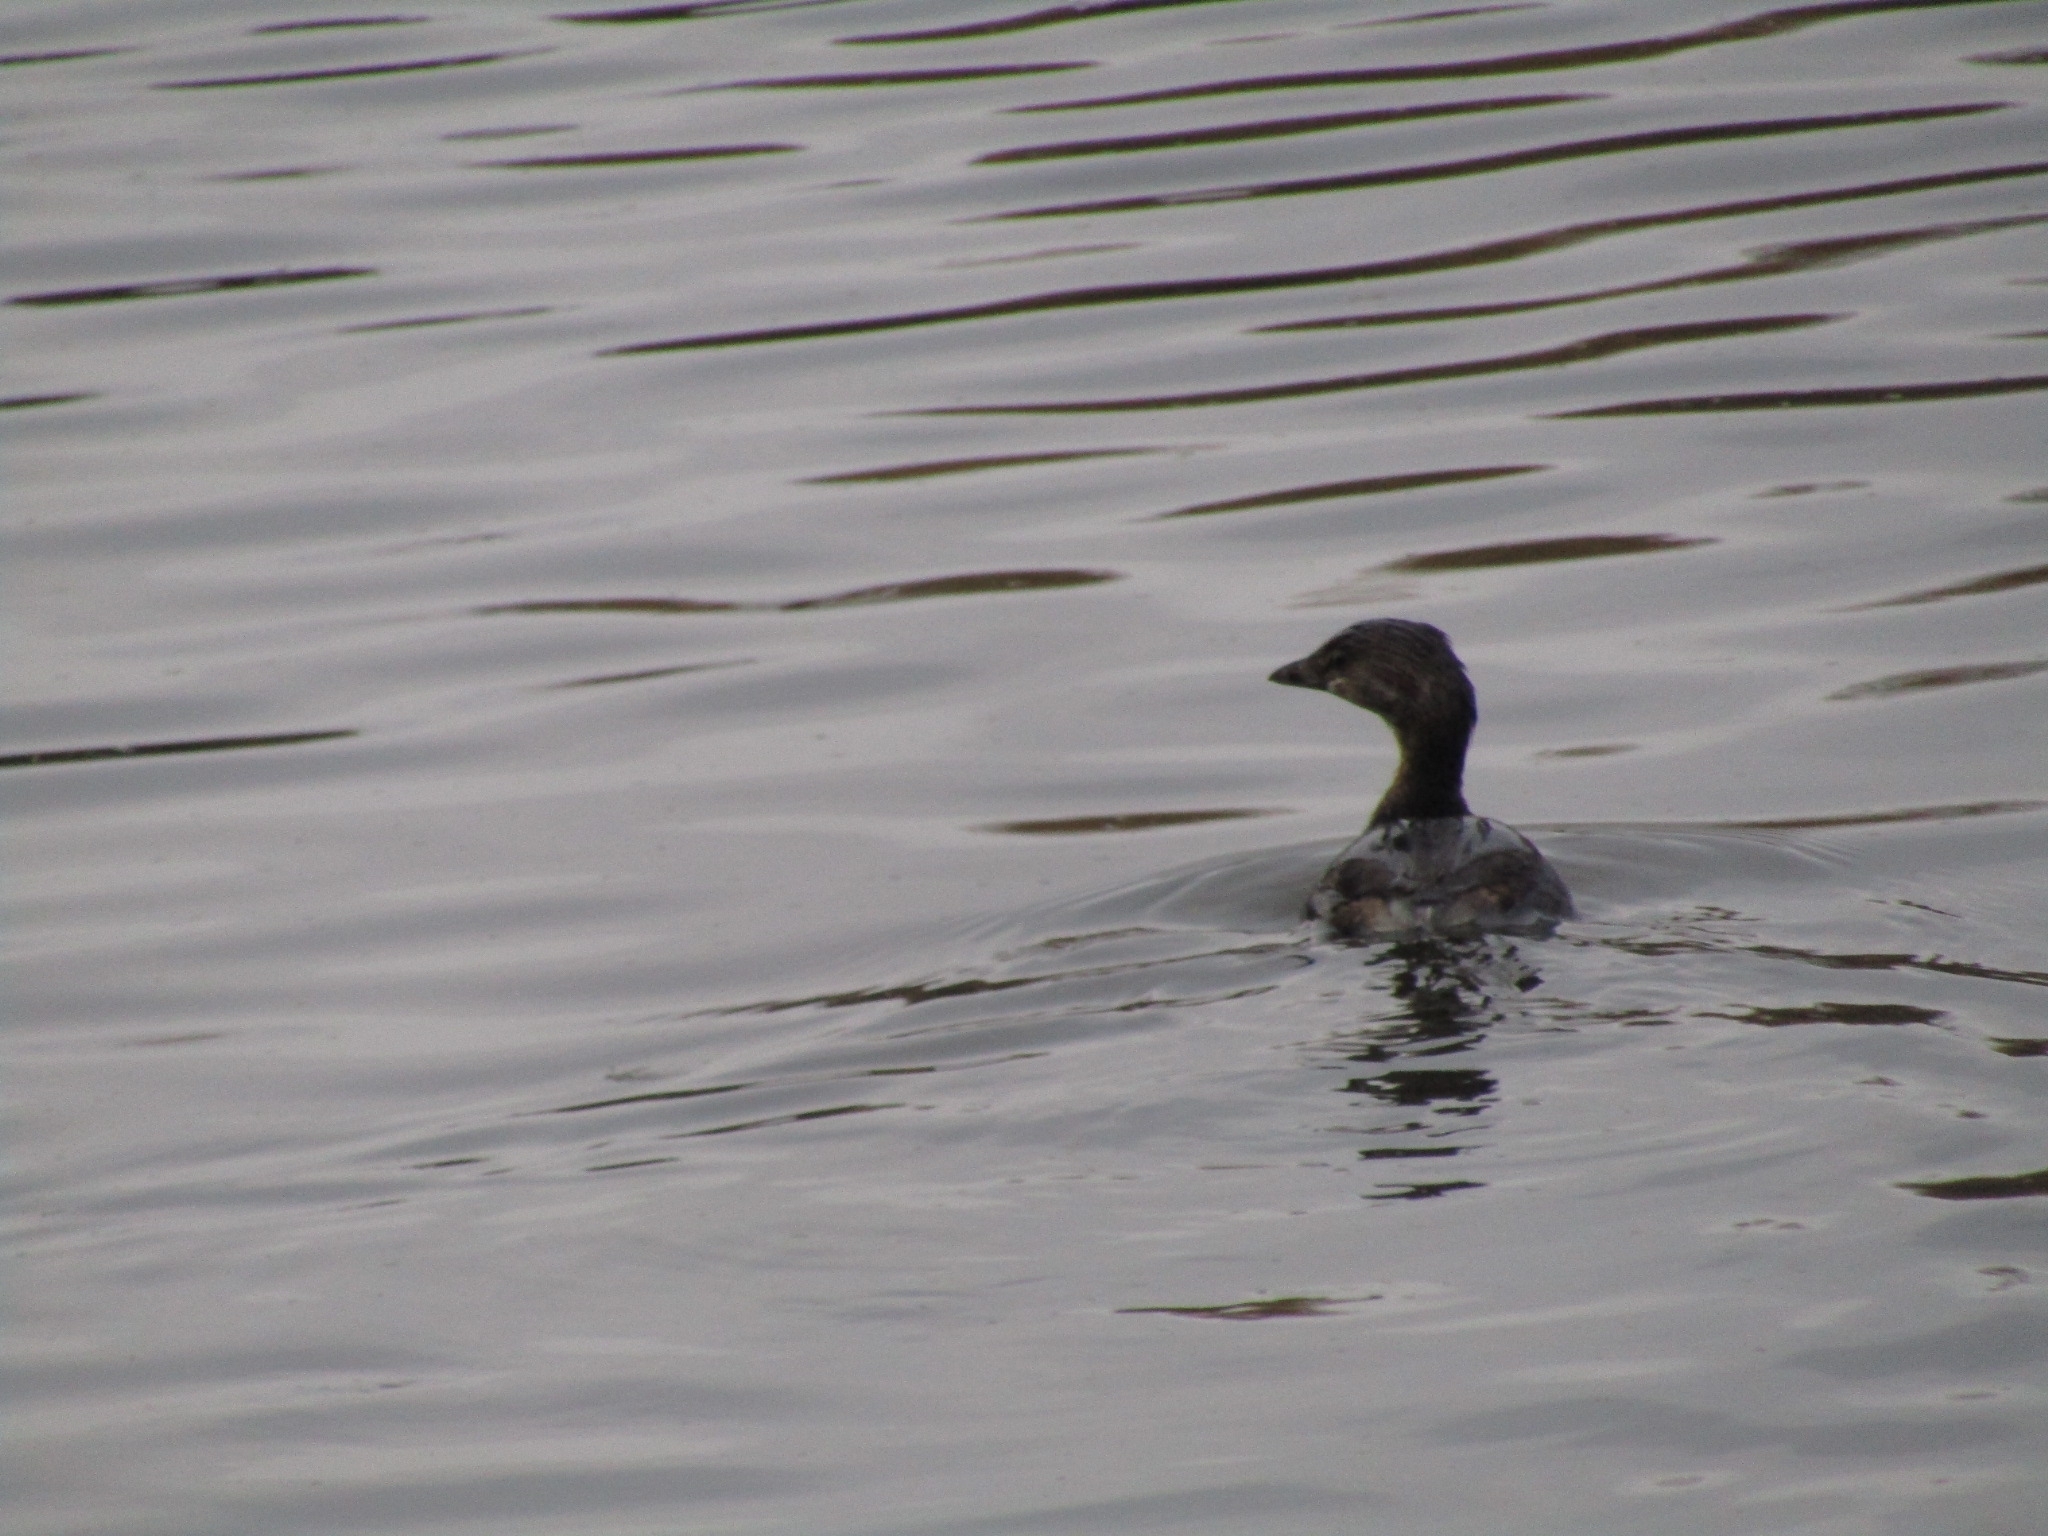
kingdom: Animalia
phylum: Chordata
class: Aves
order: Podicipediformes
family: Podicipedidae
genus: Podilymbus
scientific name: Podilymbus podiceps
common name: Pied-billed grebe
